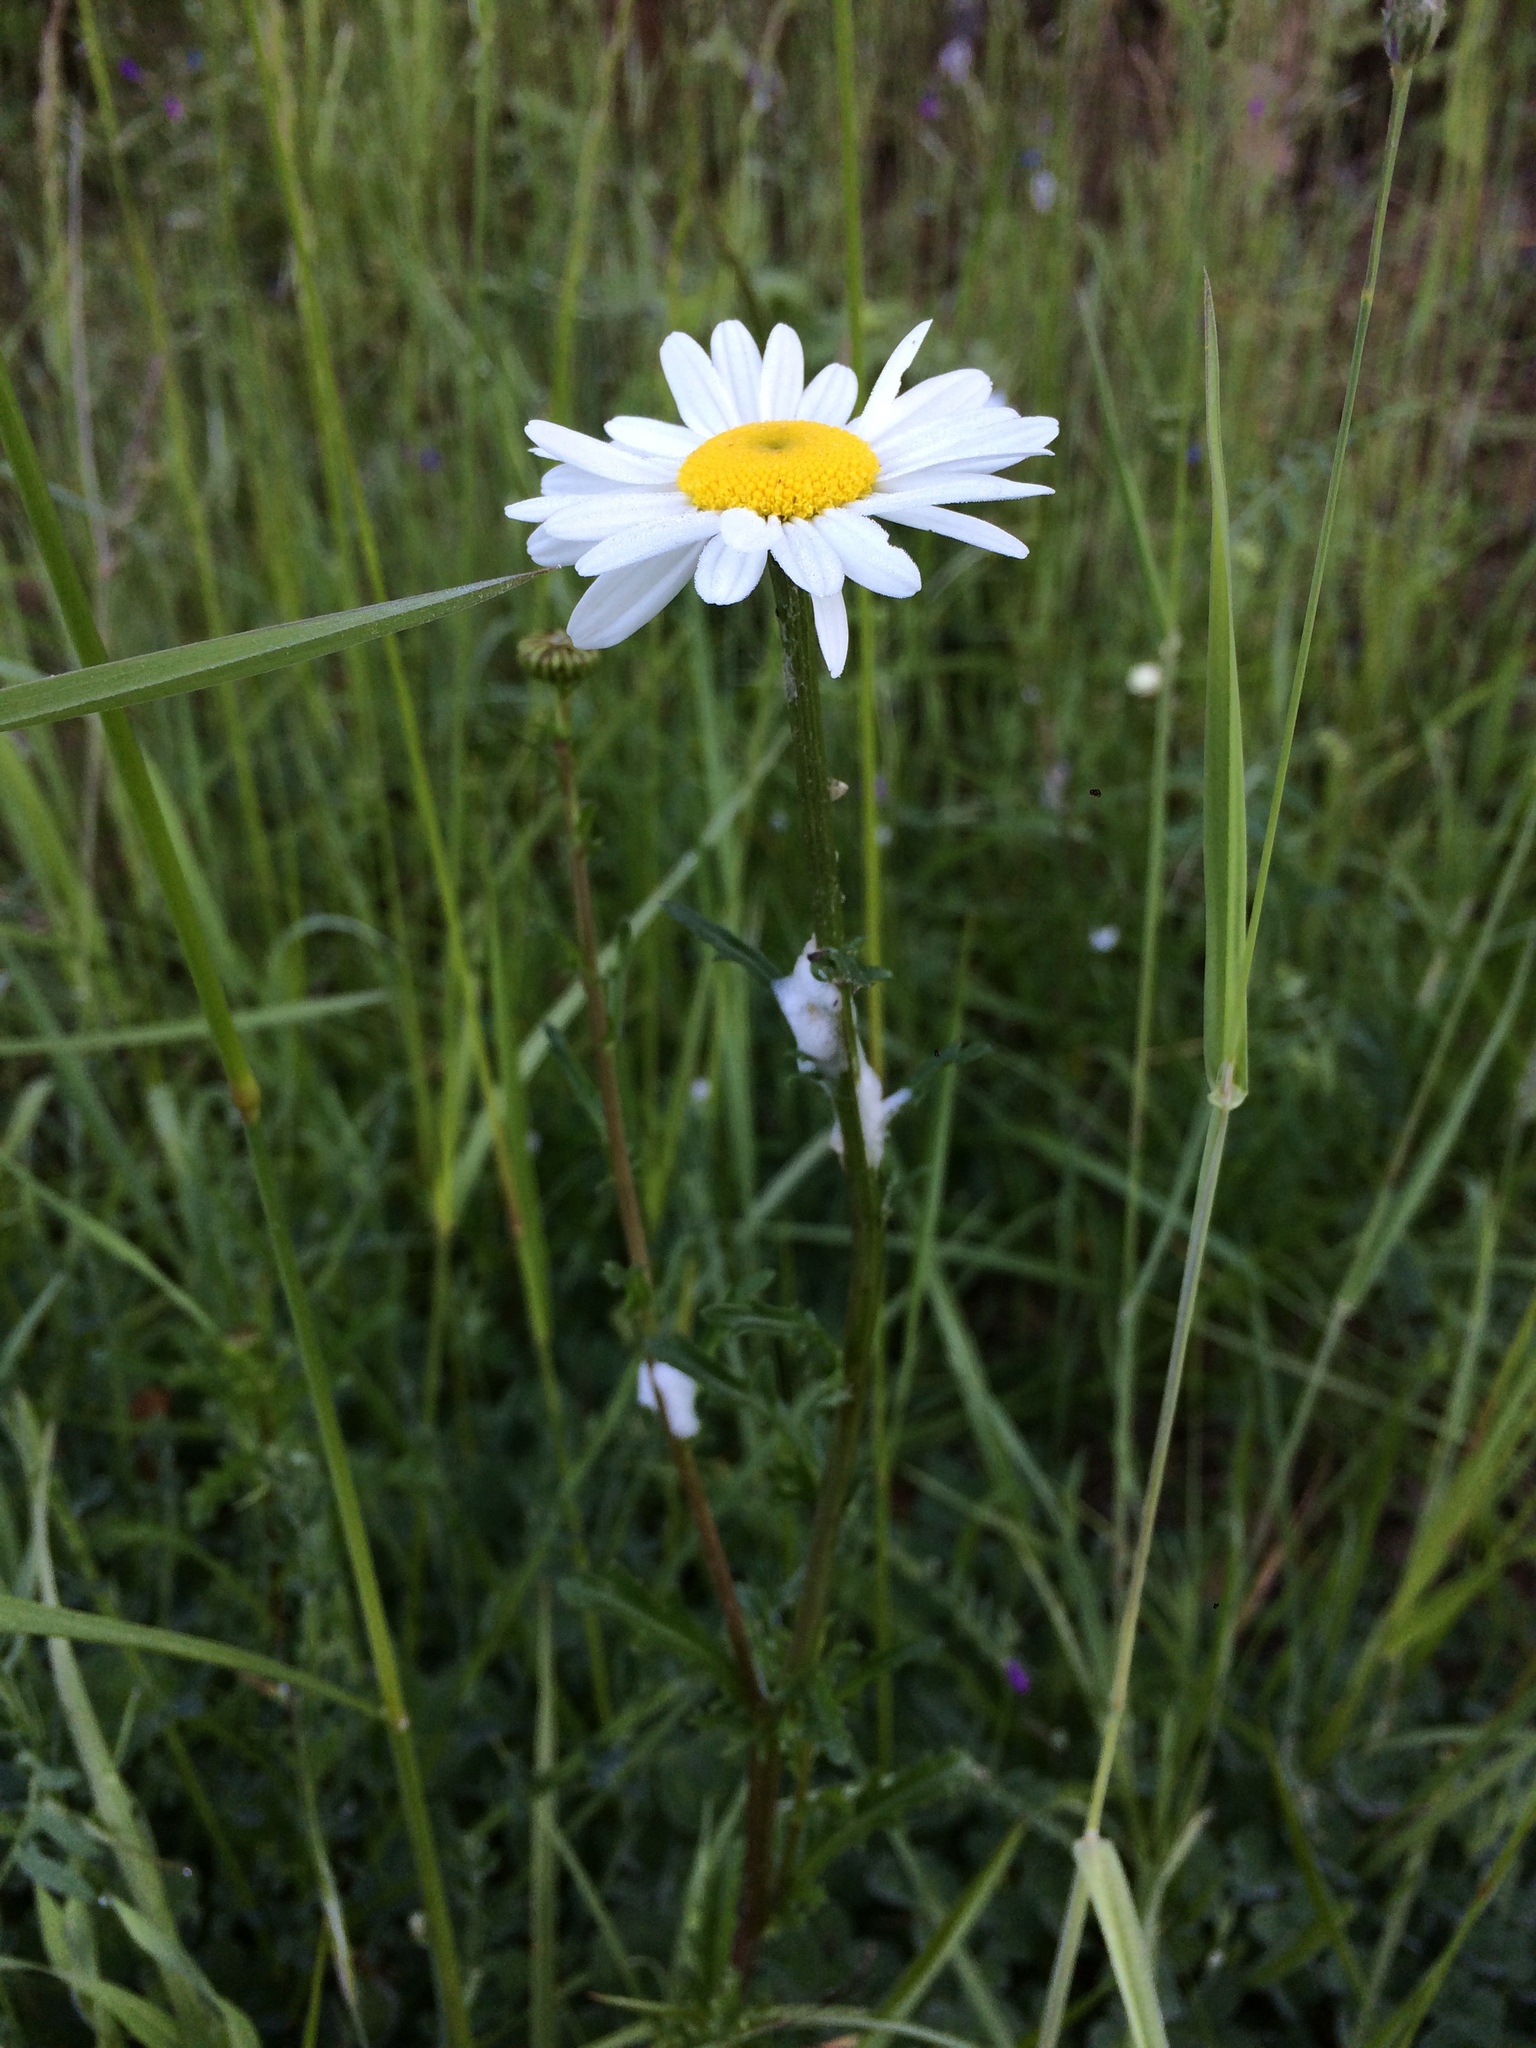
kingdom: Plantae
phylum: Tracheophyta
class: Magnoliopsida
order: Asterales
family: Asteraceae
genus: Leucanthemum
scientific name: Leucanthemum vulgare
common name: Oxeye daisy
